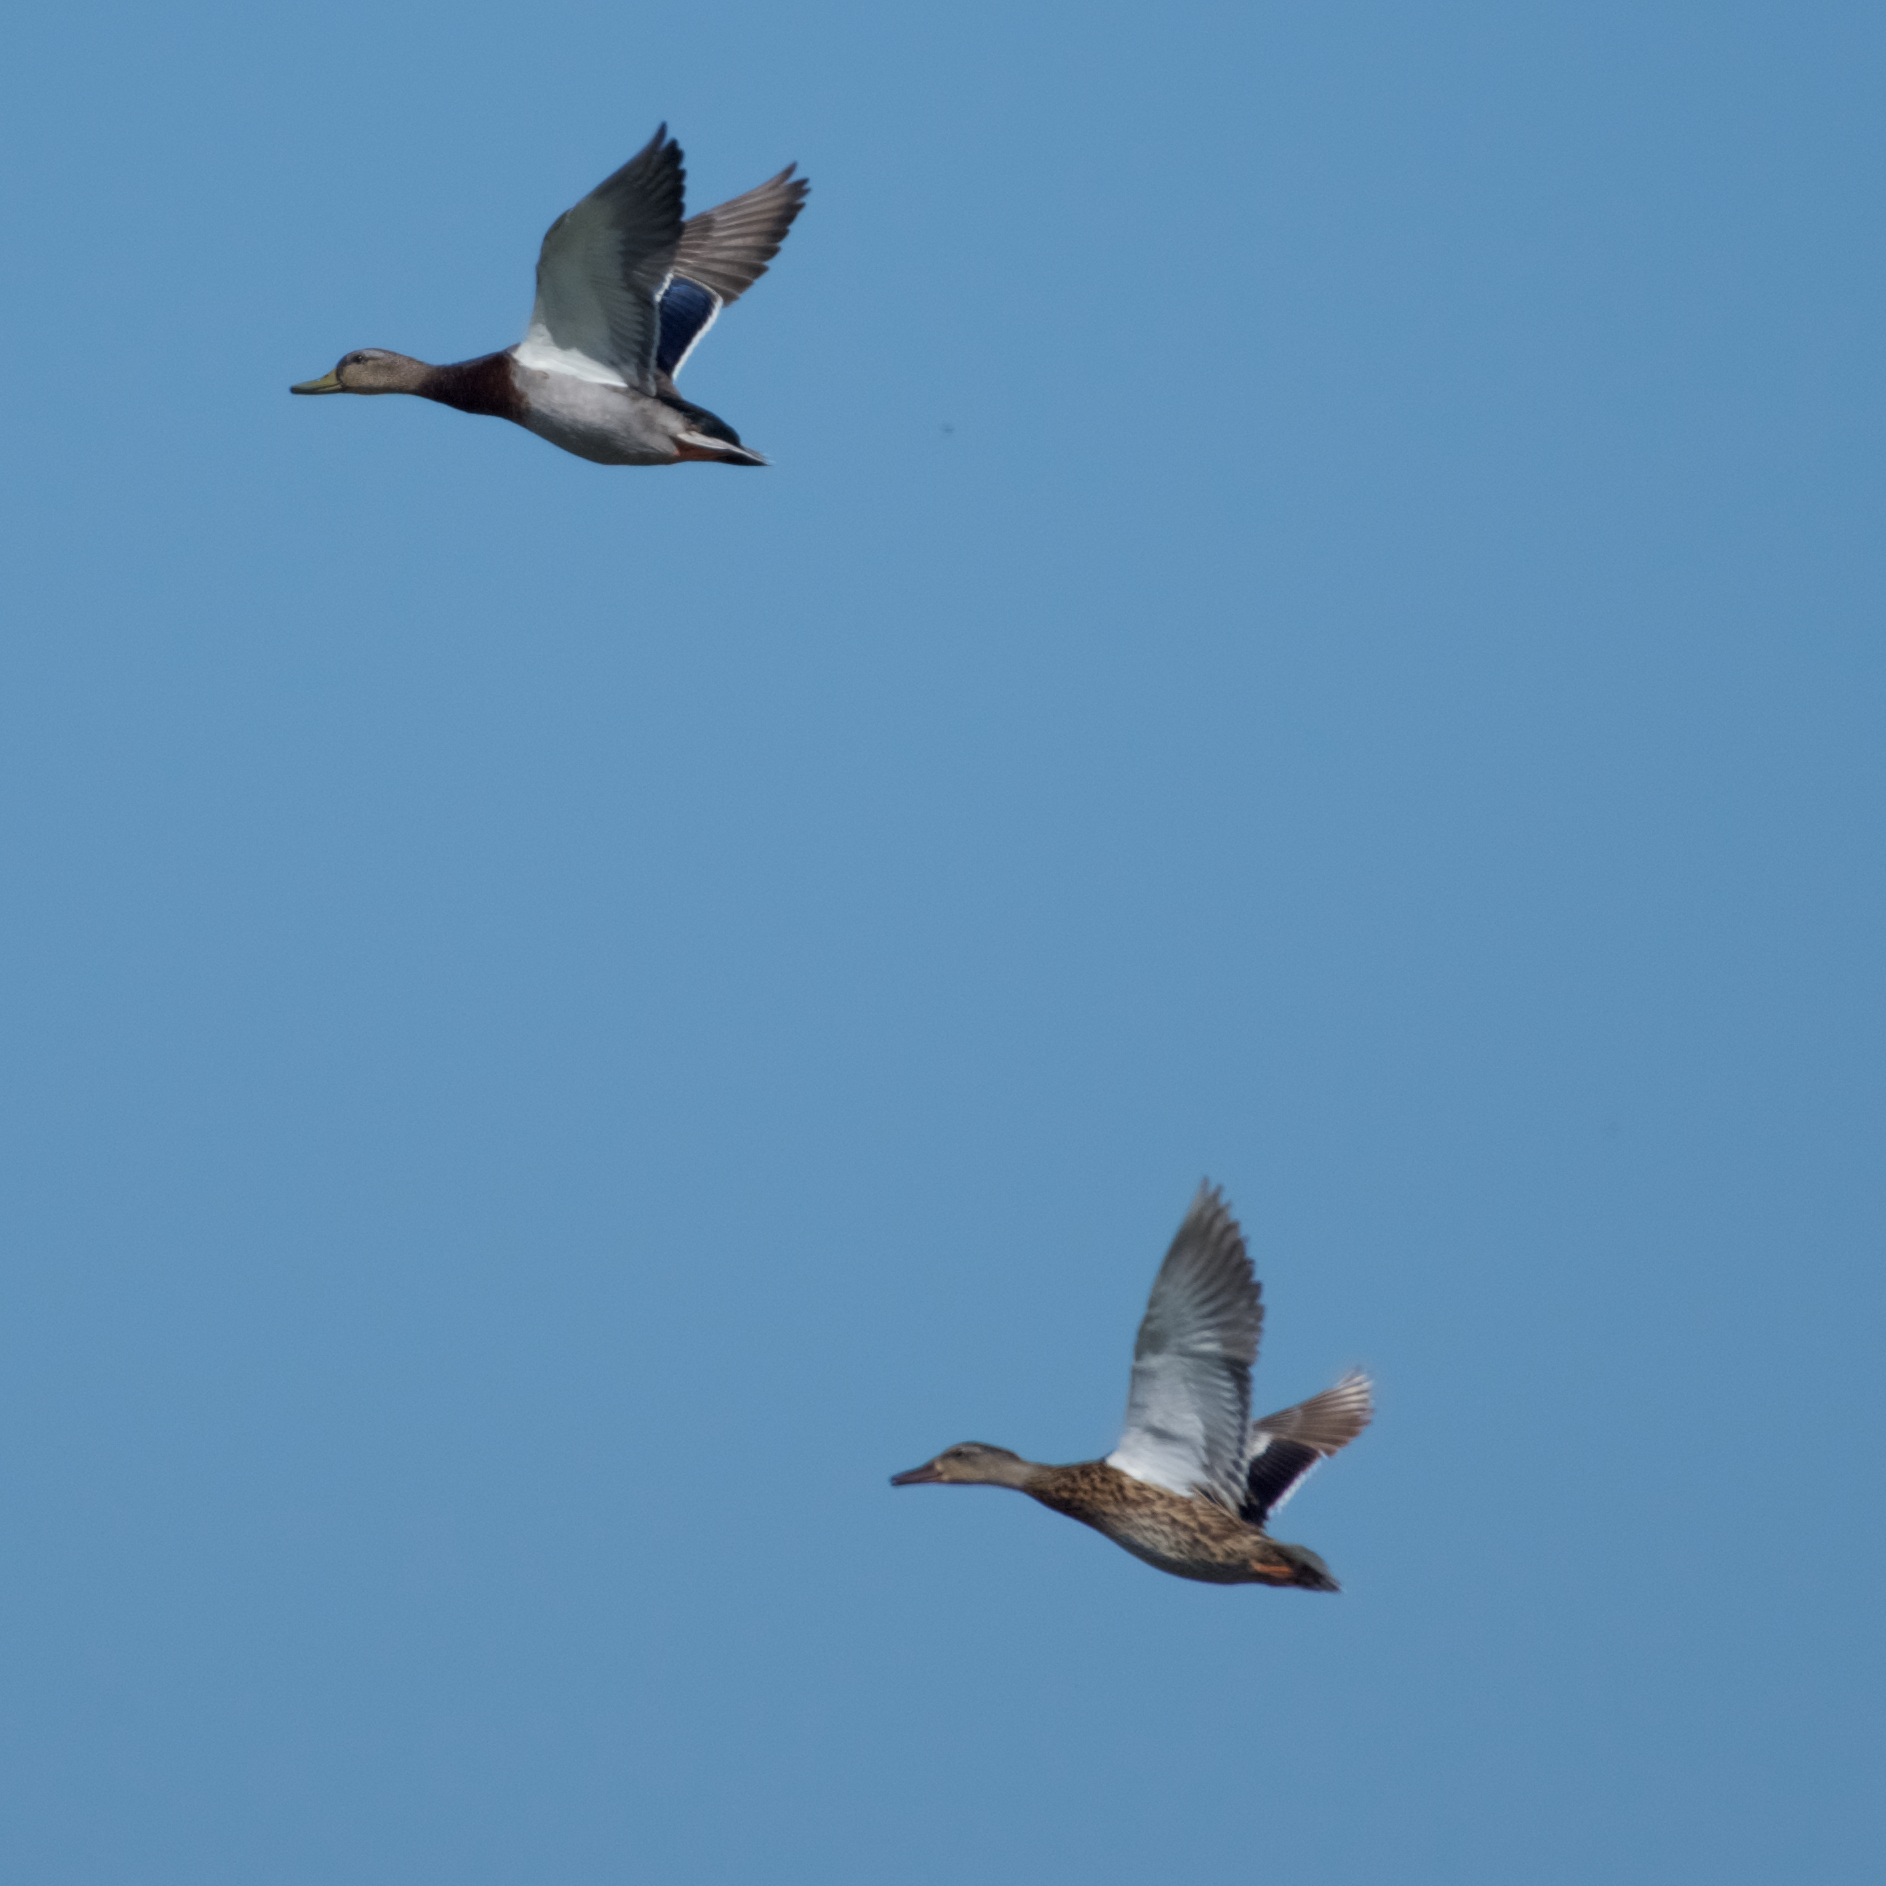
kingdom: Animalia
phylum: Chordata
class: Aves
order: Anseriformes
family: Anatidae
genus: Anas
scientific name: Anas platyrhynchos
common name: Mallard
